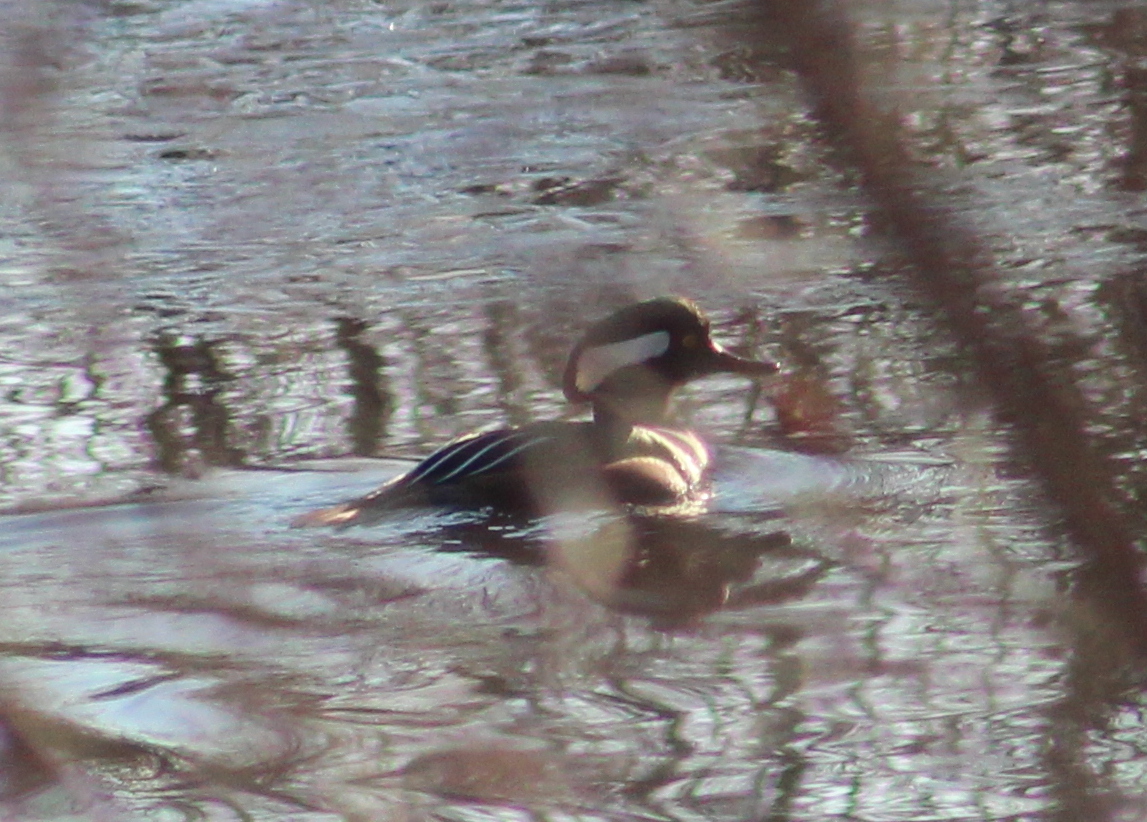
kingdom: Animalia
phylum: Chordata
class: Aves
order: Anseriformes
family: Anatidae
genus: Lophodytes
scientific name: Lophodytes cucullatus
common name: Hooded merganser
